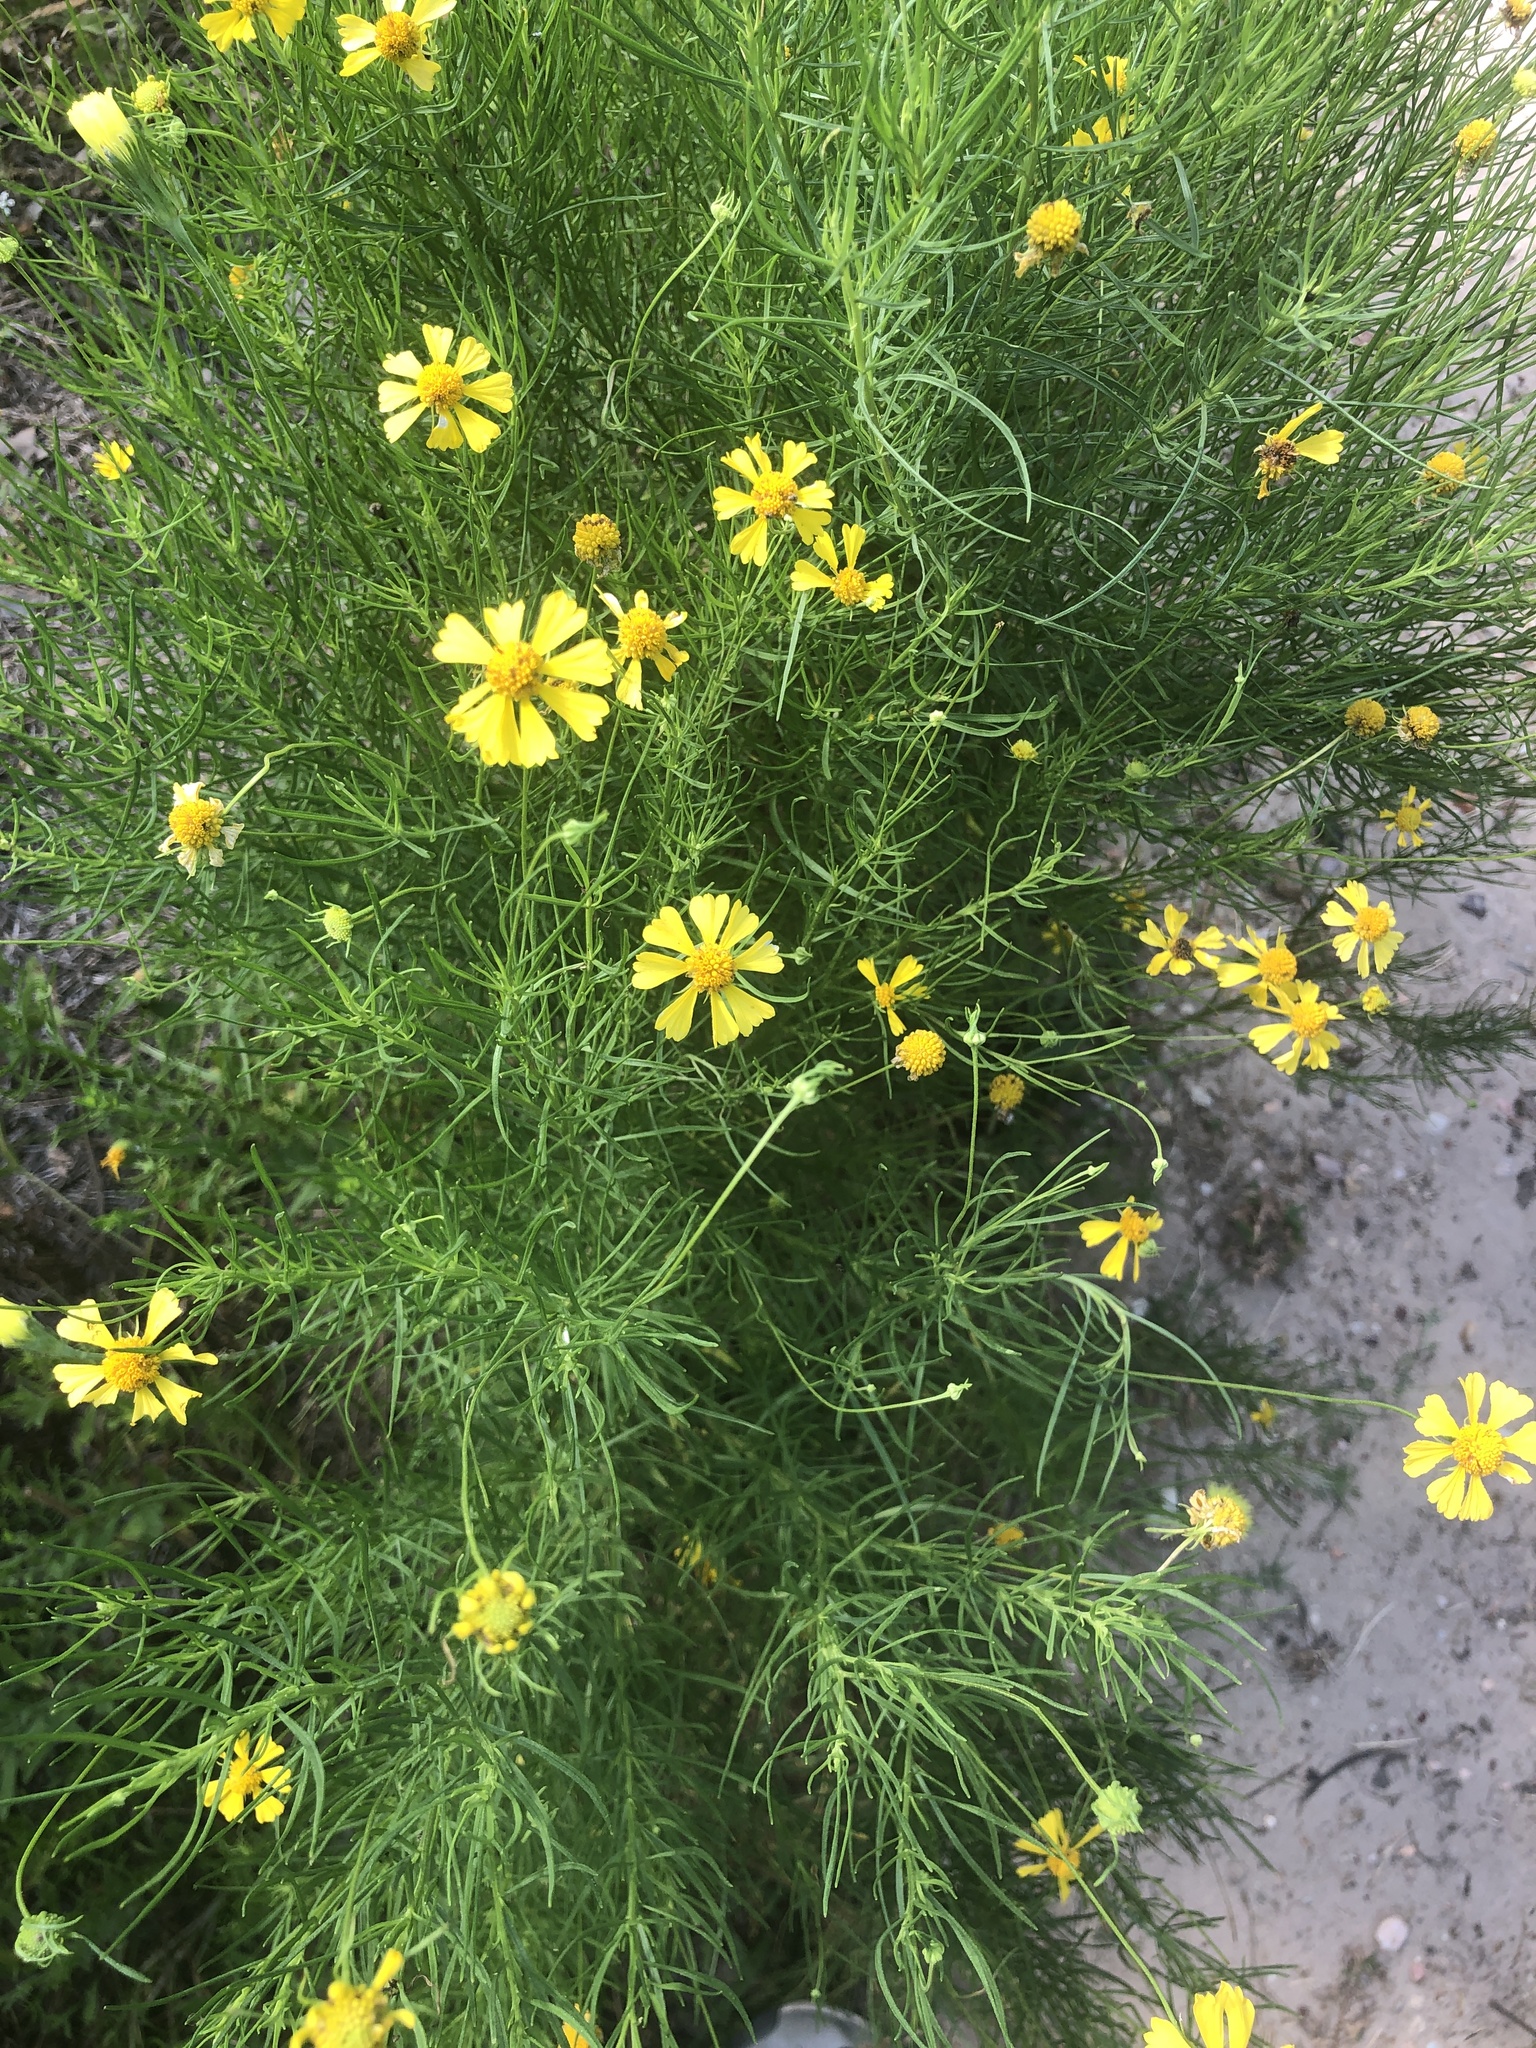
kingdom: Plantae
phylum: Tracheophyta
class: Magnoliopsida
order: Asterales
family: Asteraceae
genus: Helenium
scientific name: Helenium amarum
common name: Bitter sneezeweed
